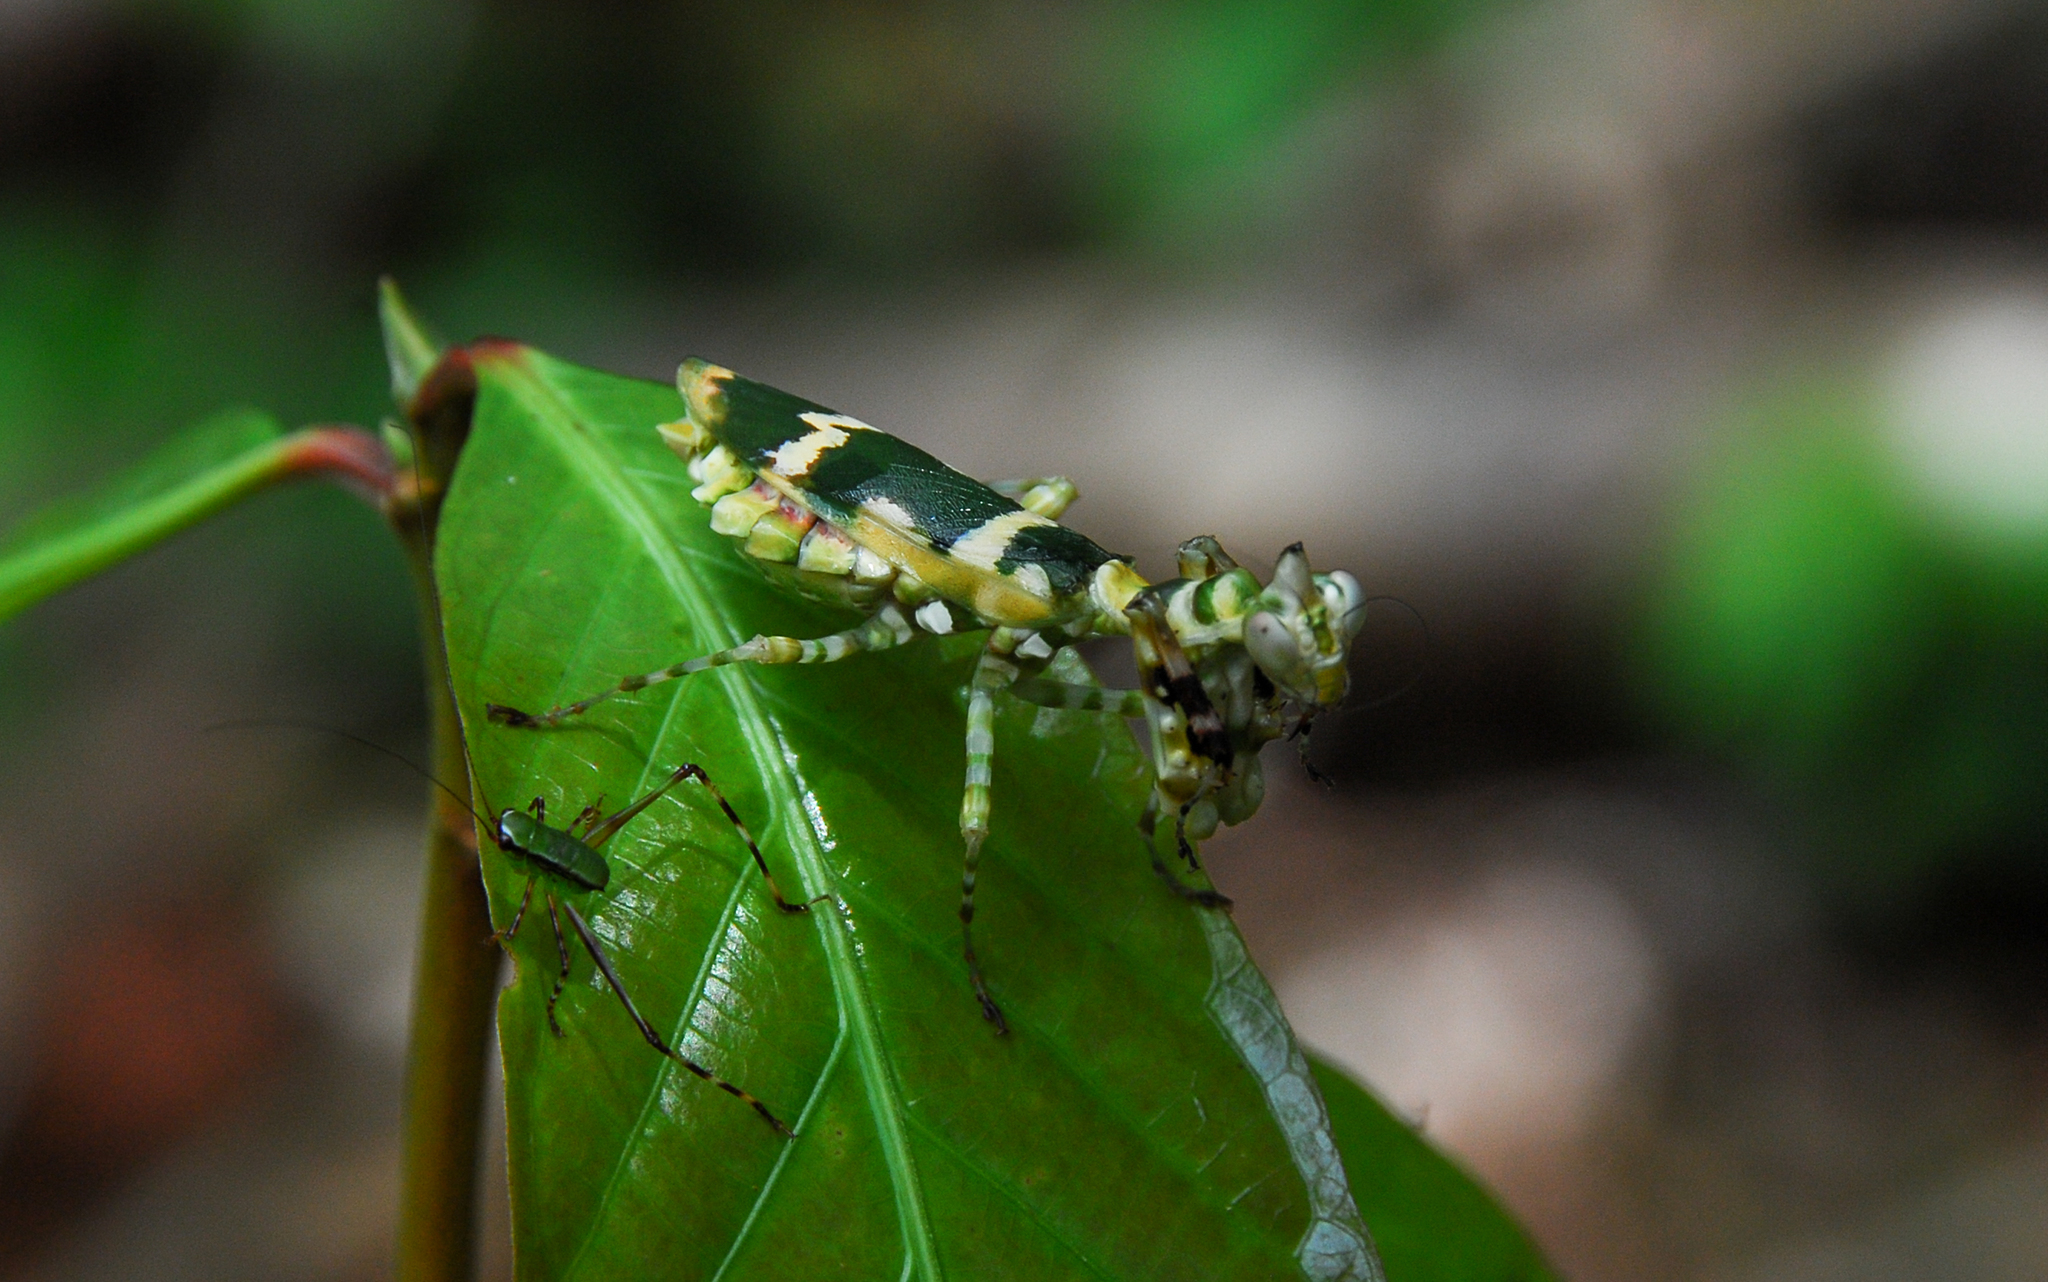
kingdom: Animalia
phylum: Arthropoda
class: Insecta
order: Mantodea
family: Acanthopidae
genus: Callibia
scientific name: Callibia diana
